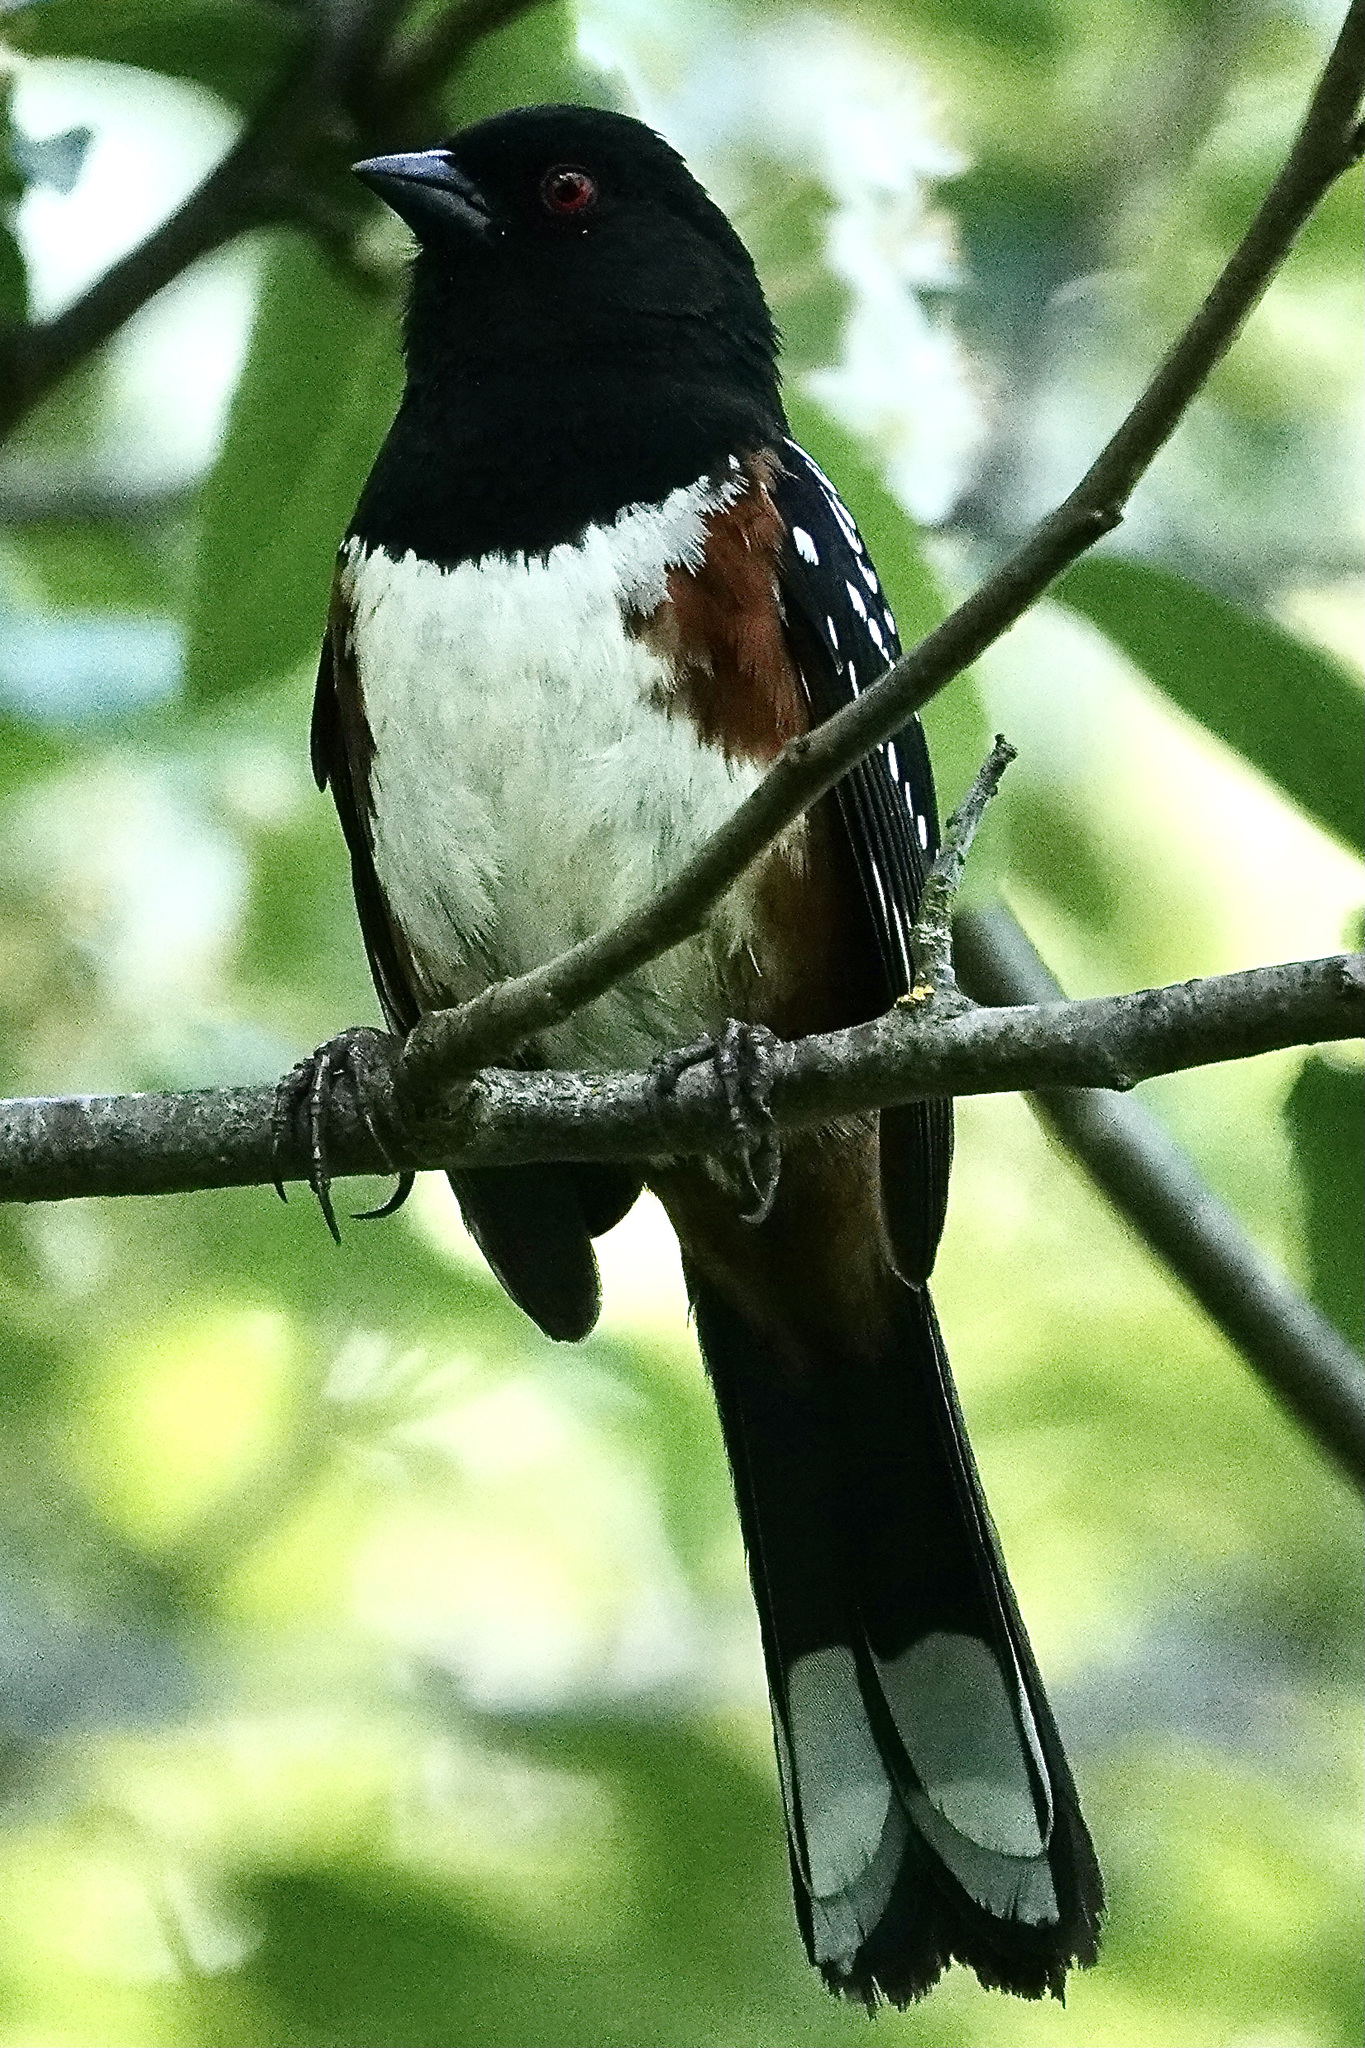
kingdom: Animalia
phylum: Chordata
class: Aves
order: Passeriformes
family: Passerellidae
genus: Pipilo
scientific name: Pipilo maculatus
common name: Spotted towhee
